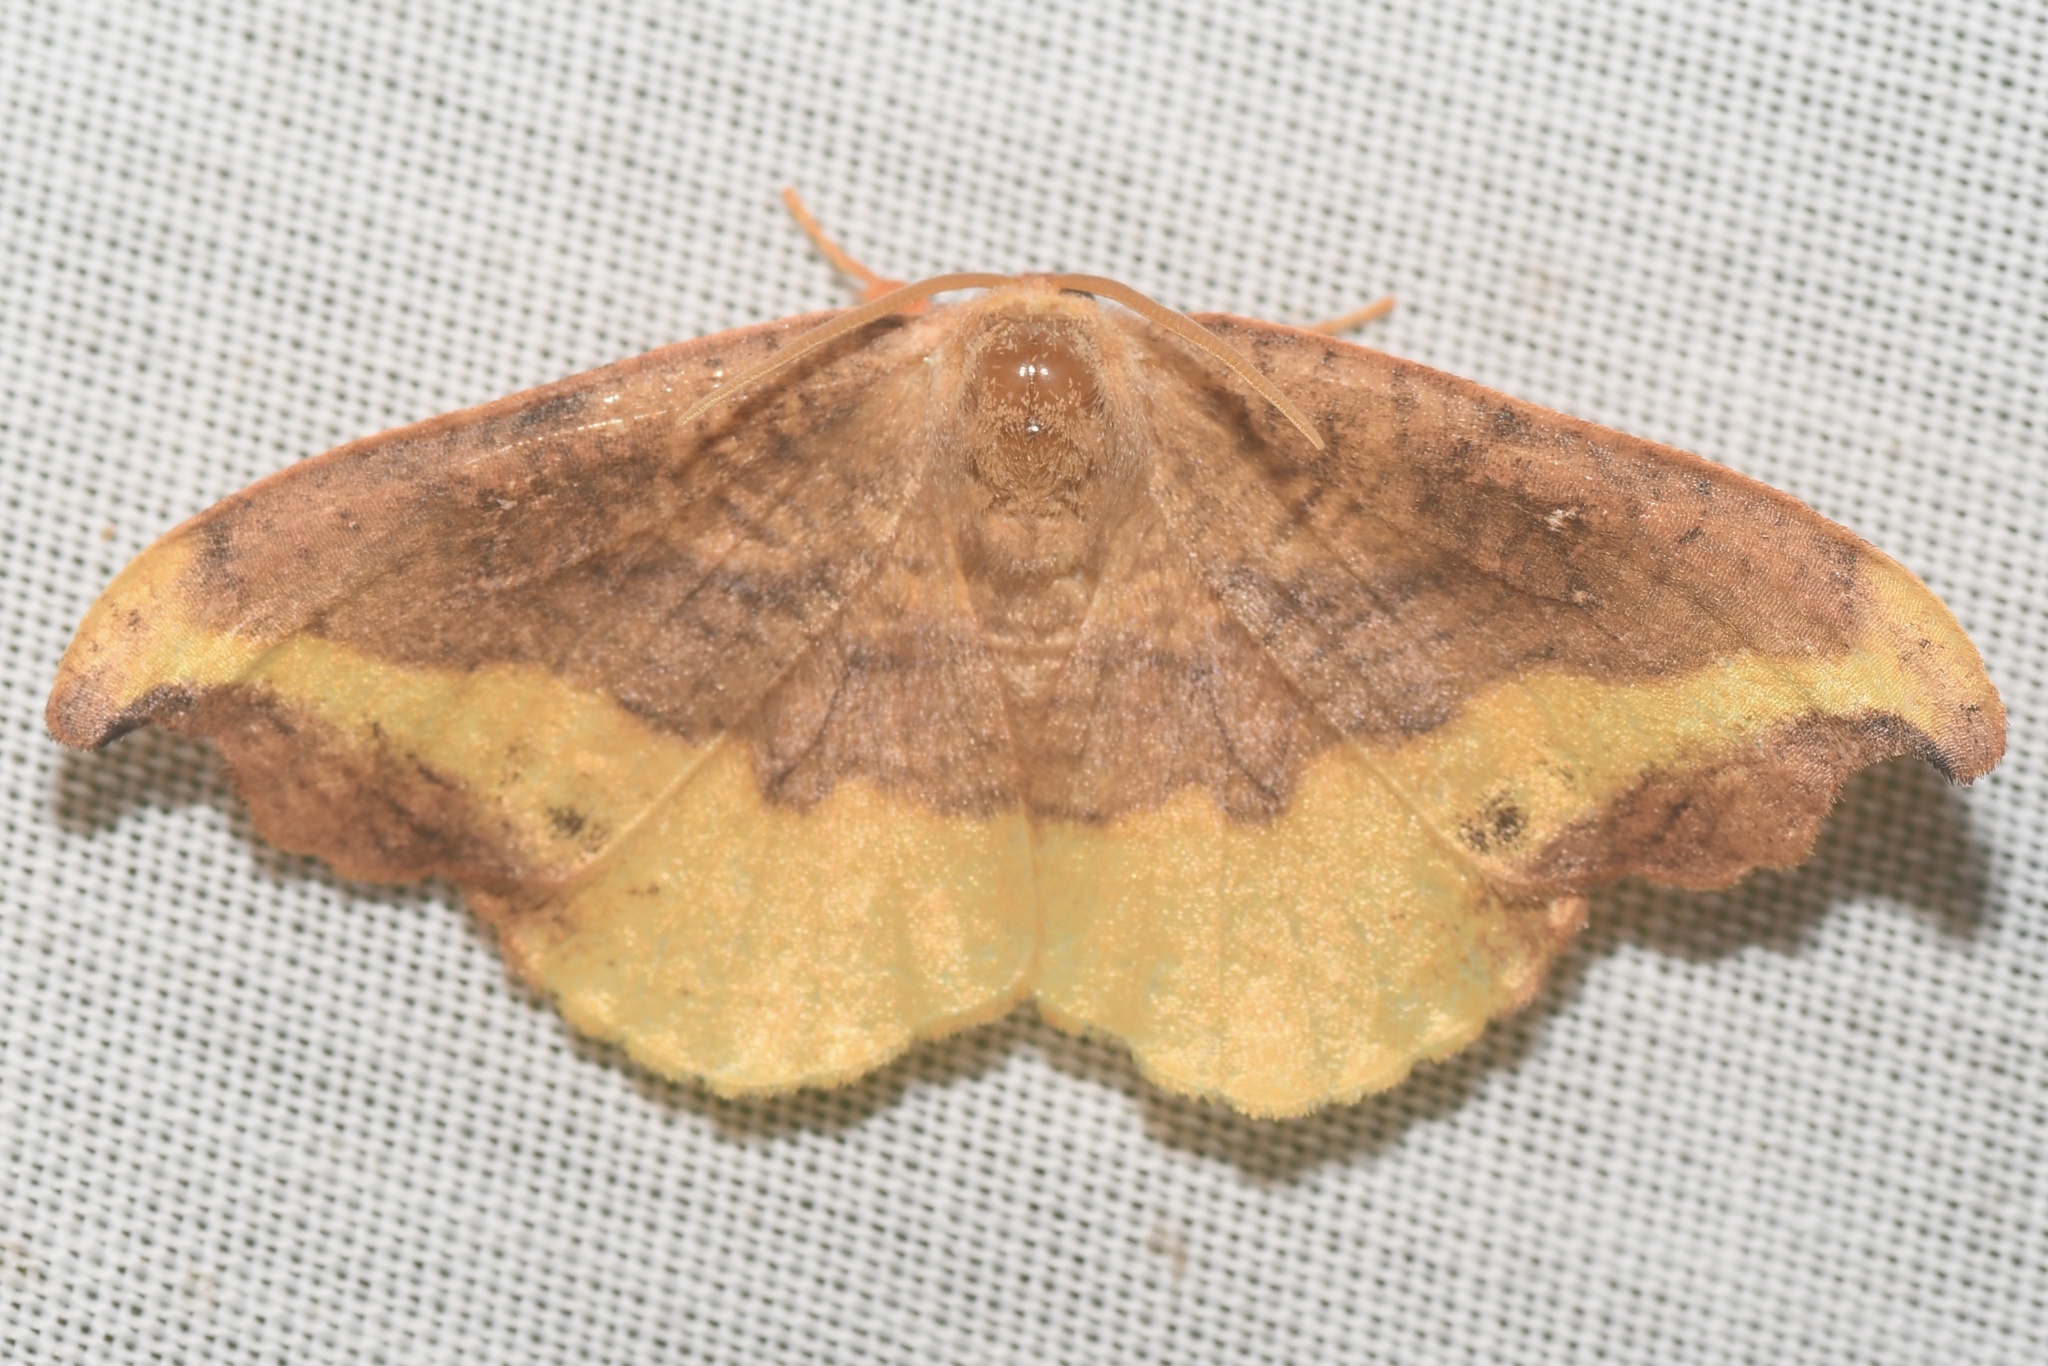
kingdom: Animalia
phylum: Arthropoda
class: Insecta
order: Lepidoptera
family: Drepanidae
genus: Oreta
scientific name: Oreta rosea
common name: Rose hooktip
